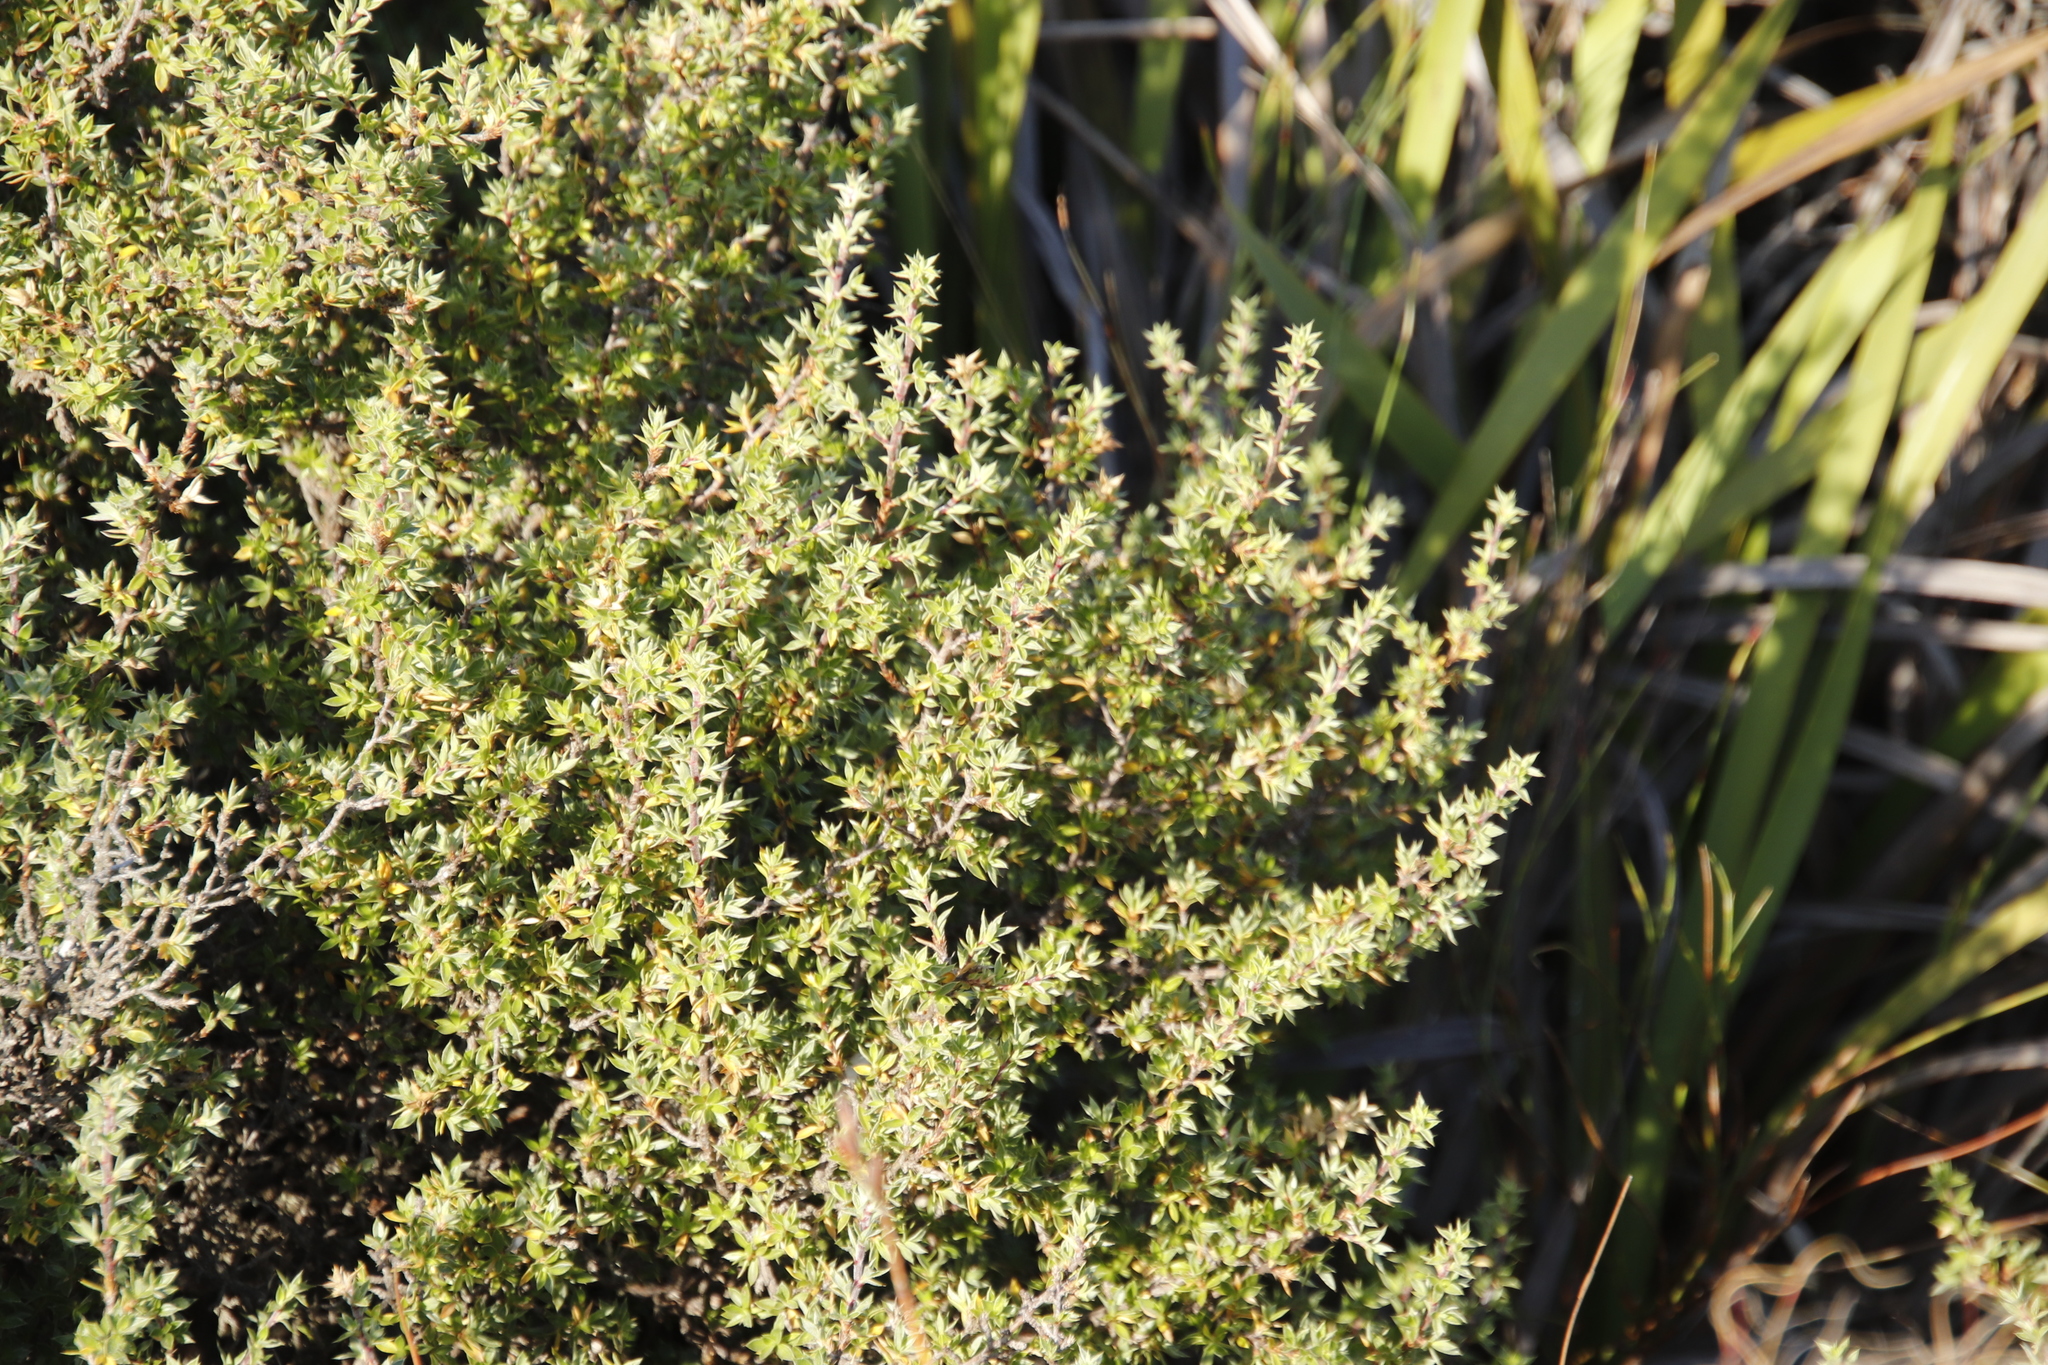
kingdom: Plantae
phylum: Tracheophyta
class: Magnoliopsida
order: Rosales
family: Rosaceae
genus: Cliffortia
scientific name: Cliffortia ruscifolia
